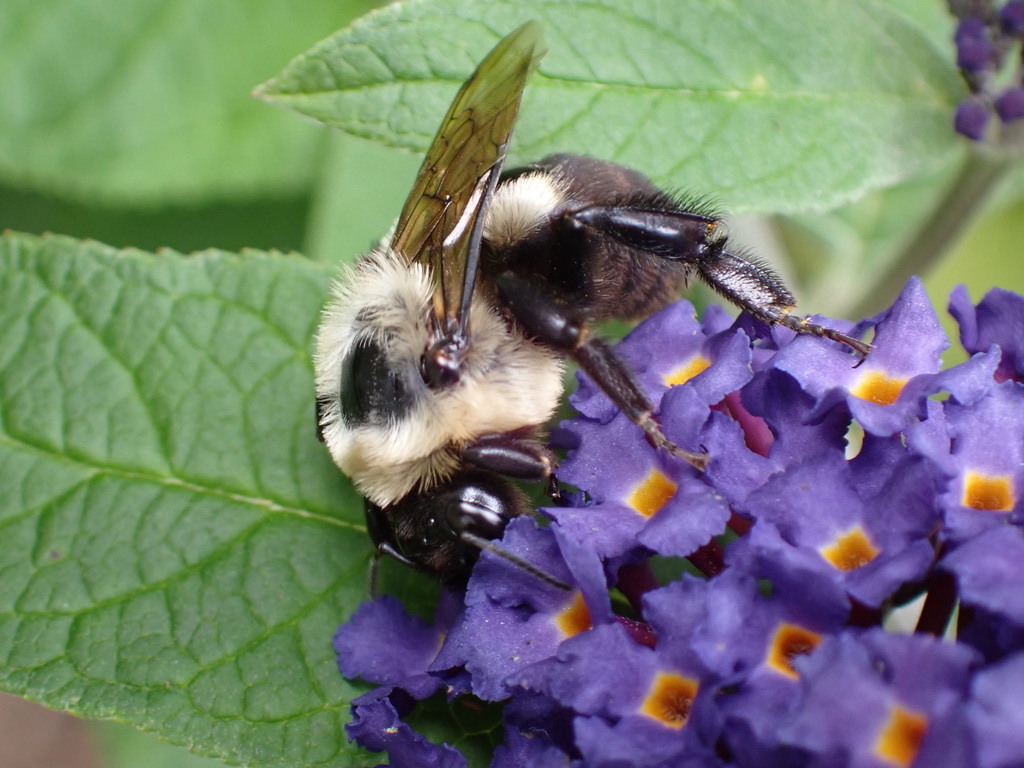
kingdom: Animalia
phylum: Arthropoda
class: Insecta
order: Hymenoptera
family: Apidae
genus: Bombus
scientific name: Bombus impatiens
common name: Common eastern bumble bee
